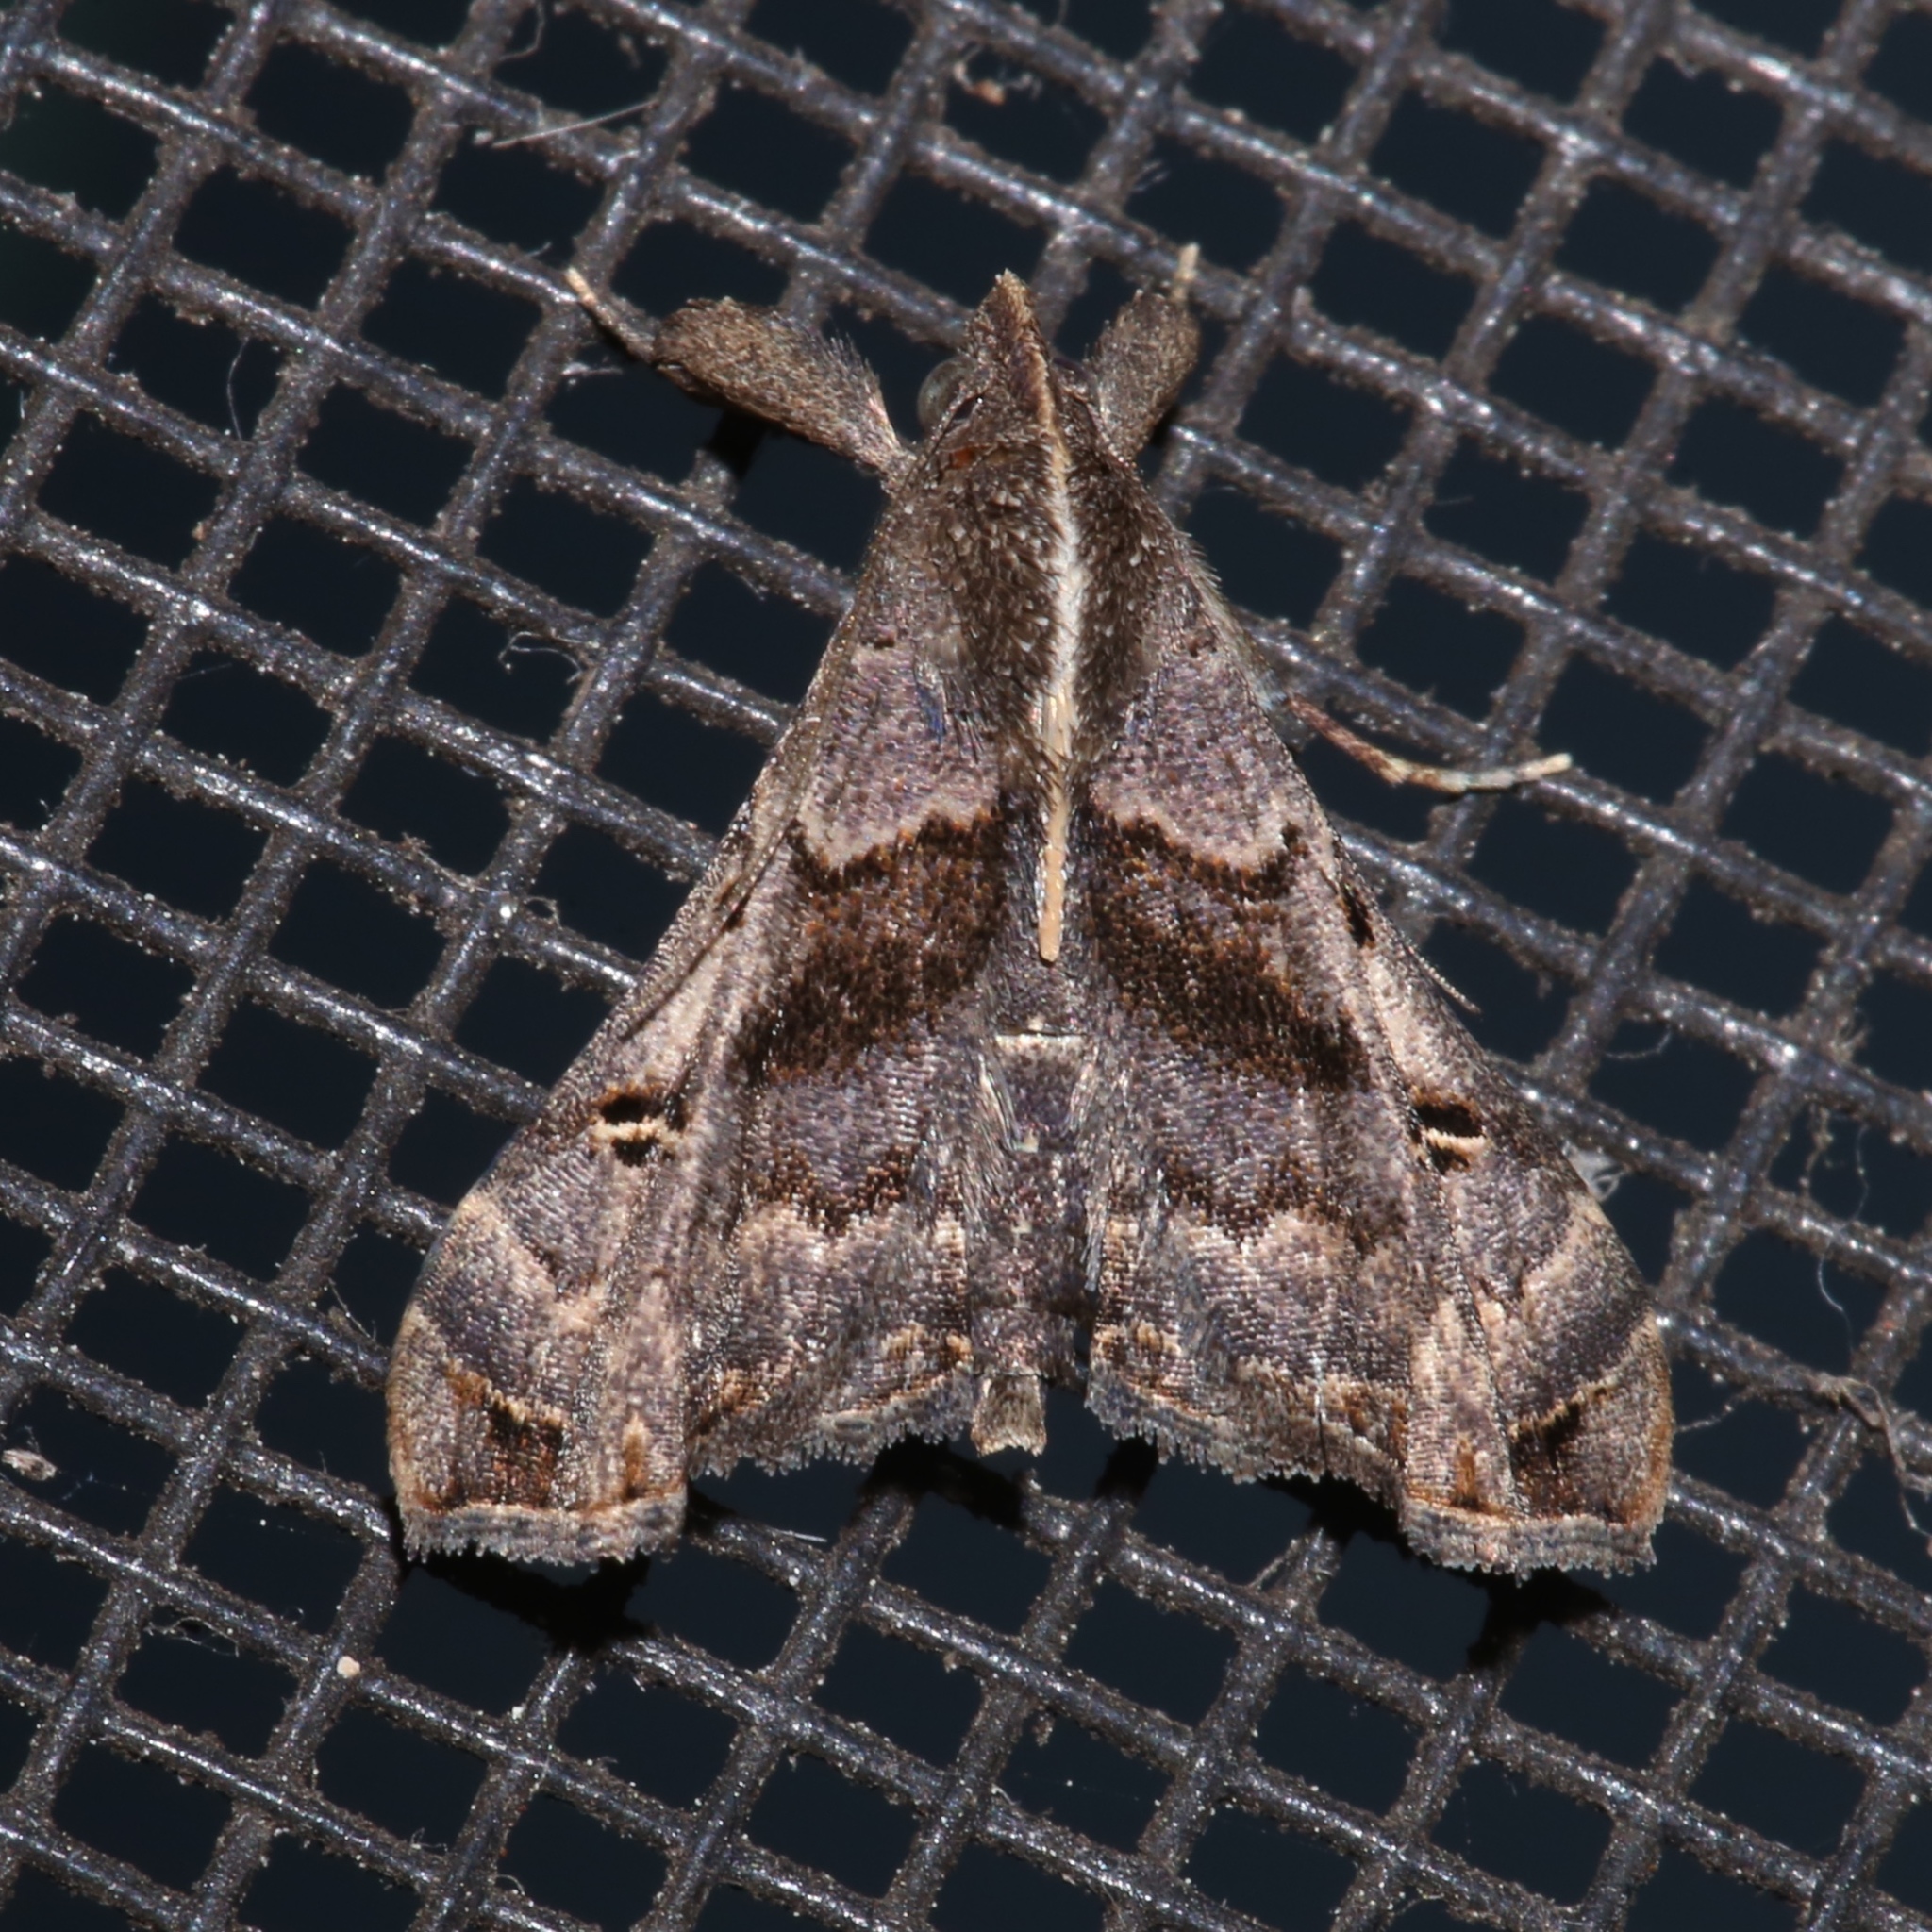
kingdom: Animalia
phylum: Arthropoda
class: Insecta
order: Lepidoptera
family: Erebidae
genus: Palthis
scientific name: Palthis asopialis
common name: Faint-spotted palthis moth
